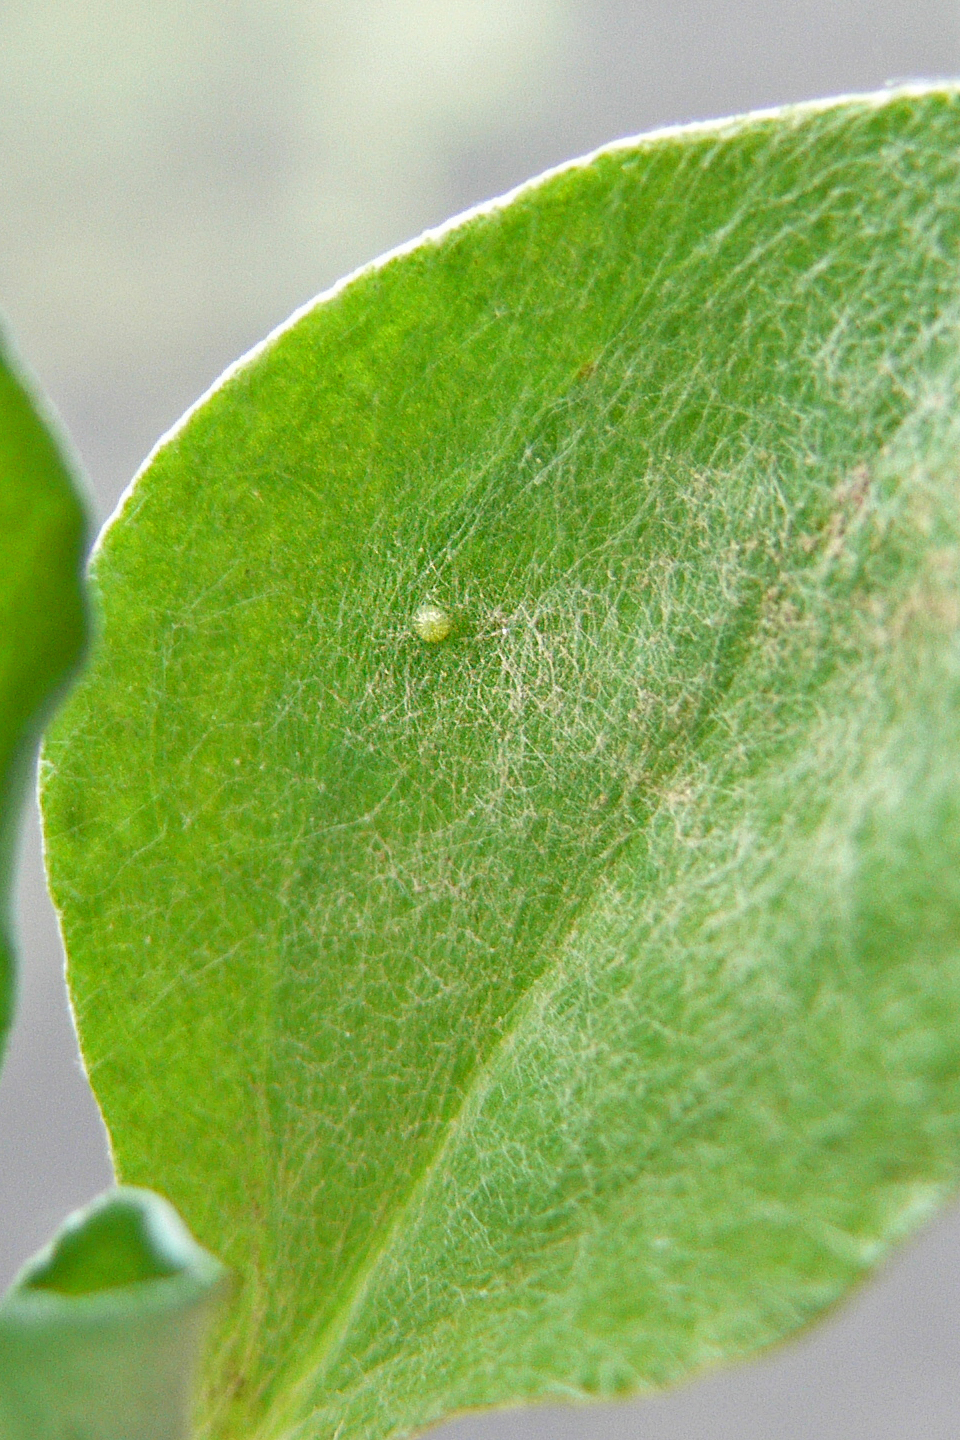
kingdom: Animalia
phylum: Arthropoda
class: Insecta
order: Lepidoptera
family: Nymphalidae
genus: Vanessa
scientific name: Vanessa virginiensis
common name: American lady
